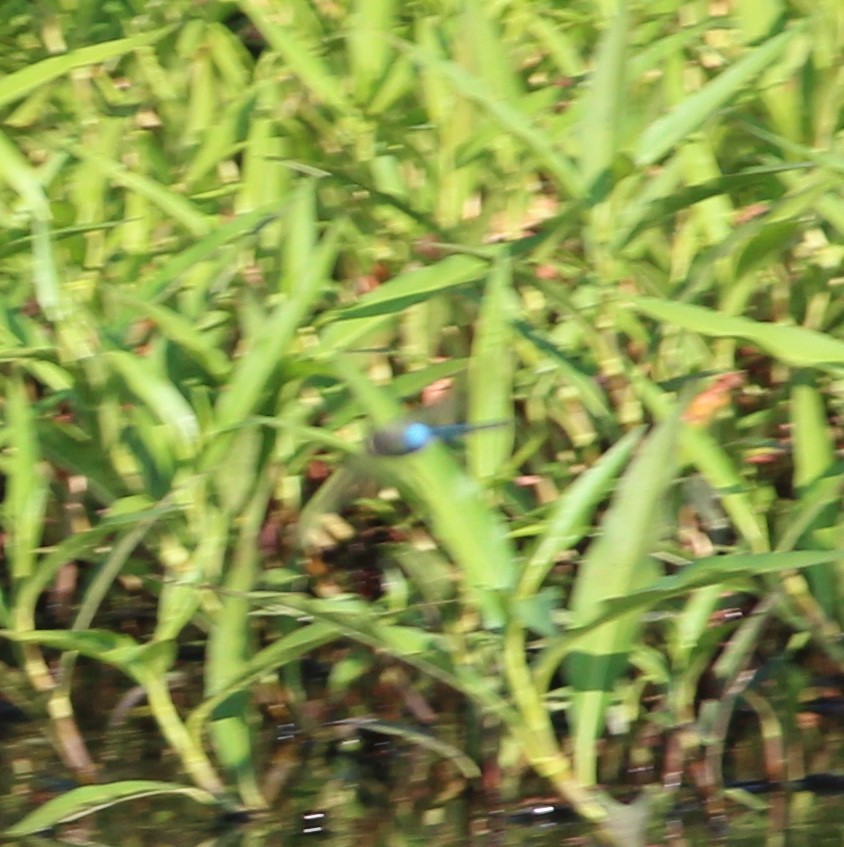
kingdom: Animalia
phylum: Arthropoda
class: Insecta
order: Odonata
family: Aeshnidae
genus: Anax
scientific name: Anax junius
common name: Common green darner
